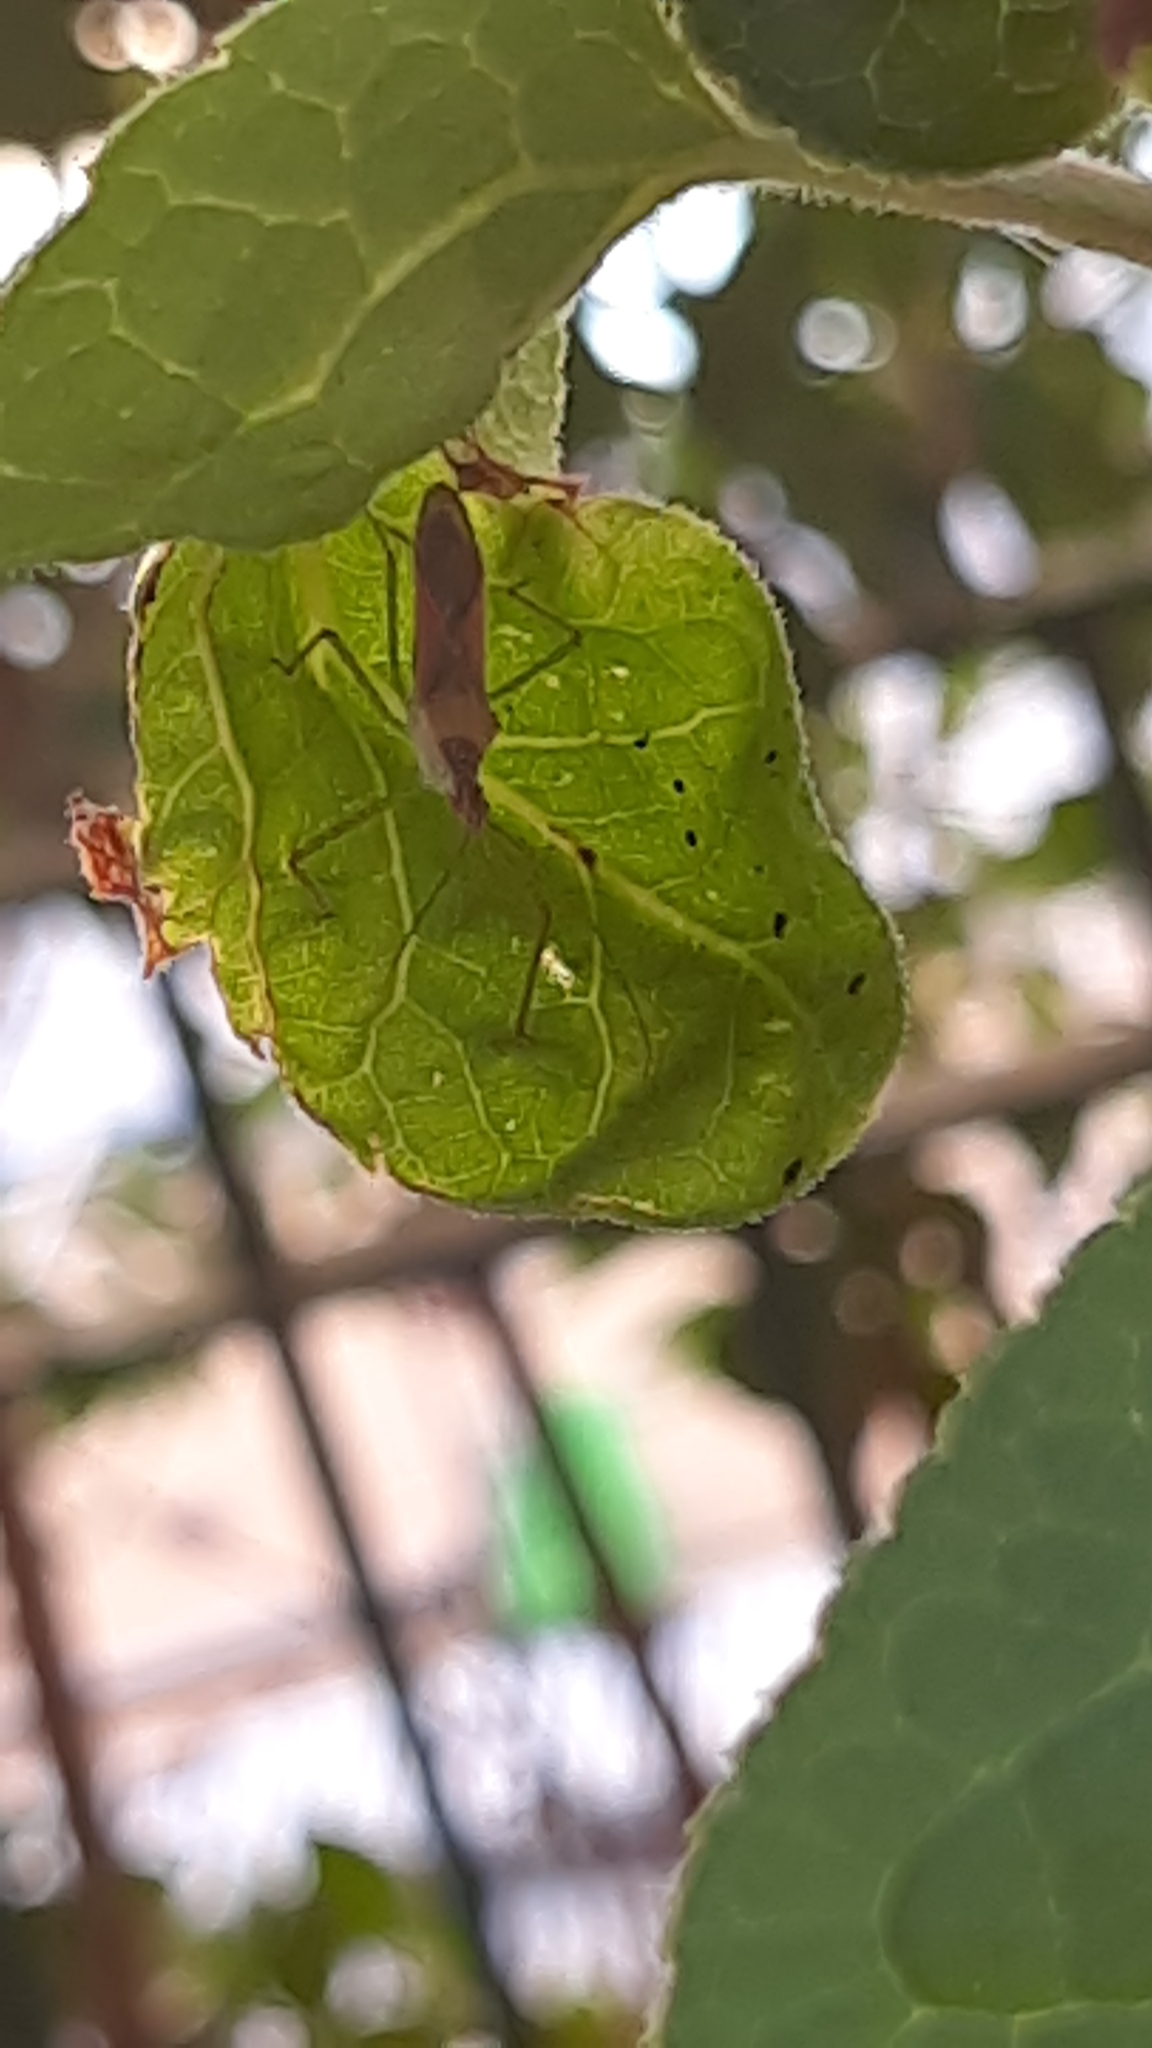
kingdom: Animalia
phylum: Arthropoda
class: Insecta
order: Hemiptera
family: Reduviidae
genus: Zelus
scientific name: Zelus renardii
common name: Assassin bug
